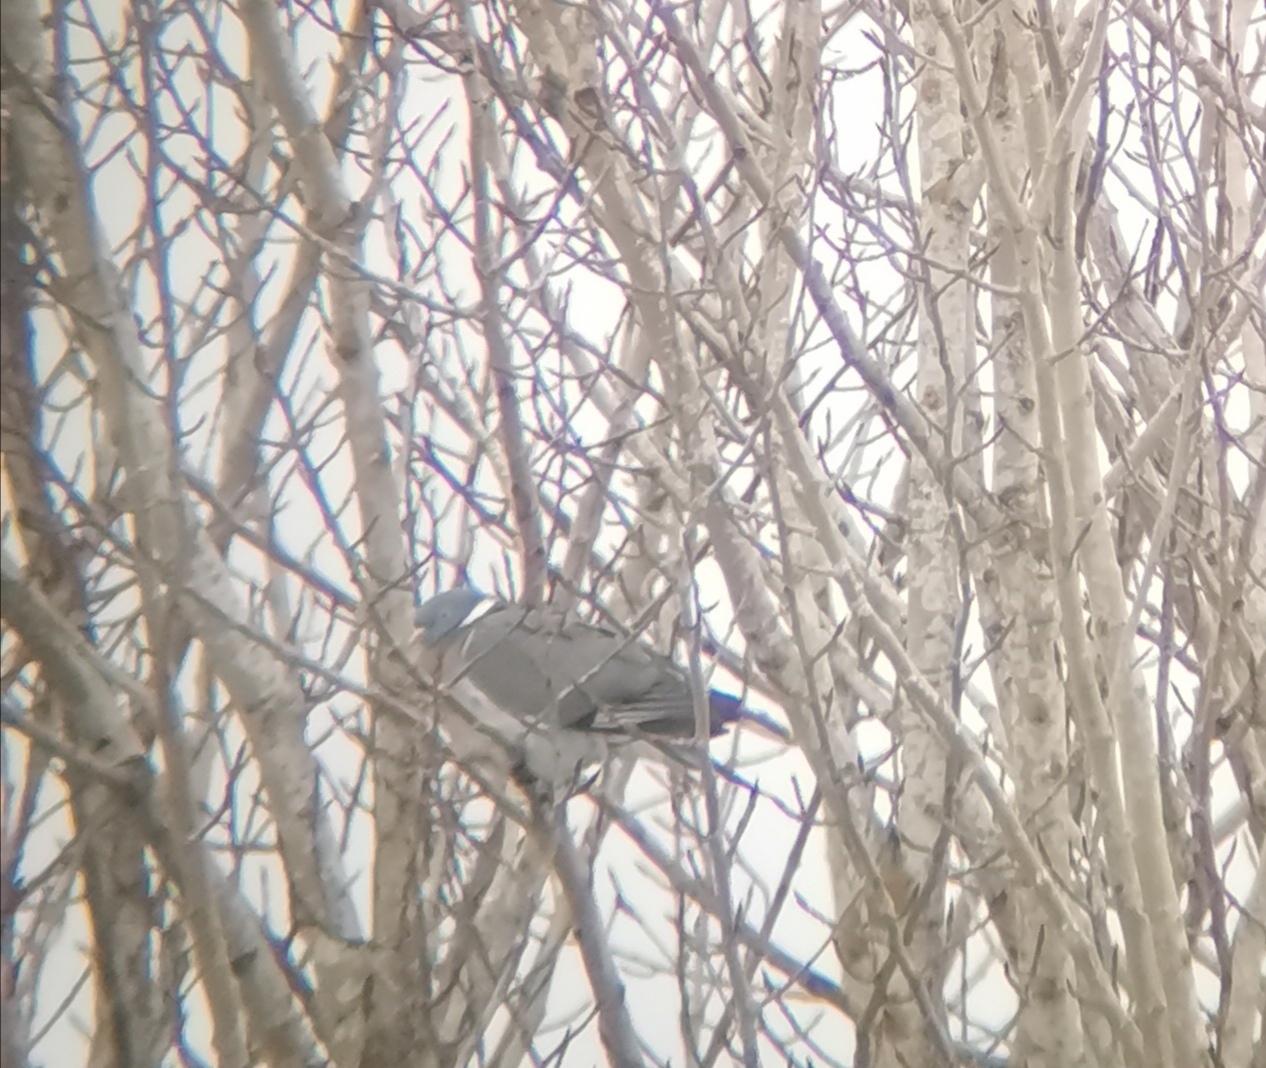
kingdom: Animalia
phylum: Chordata
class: Aves
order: Columbiformes
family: Columbidae
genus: Columba
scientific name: Columba palumbus
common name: Common wood pigeon
